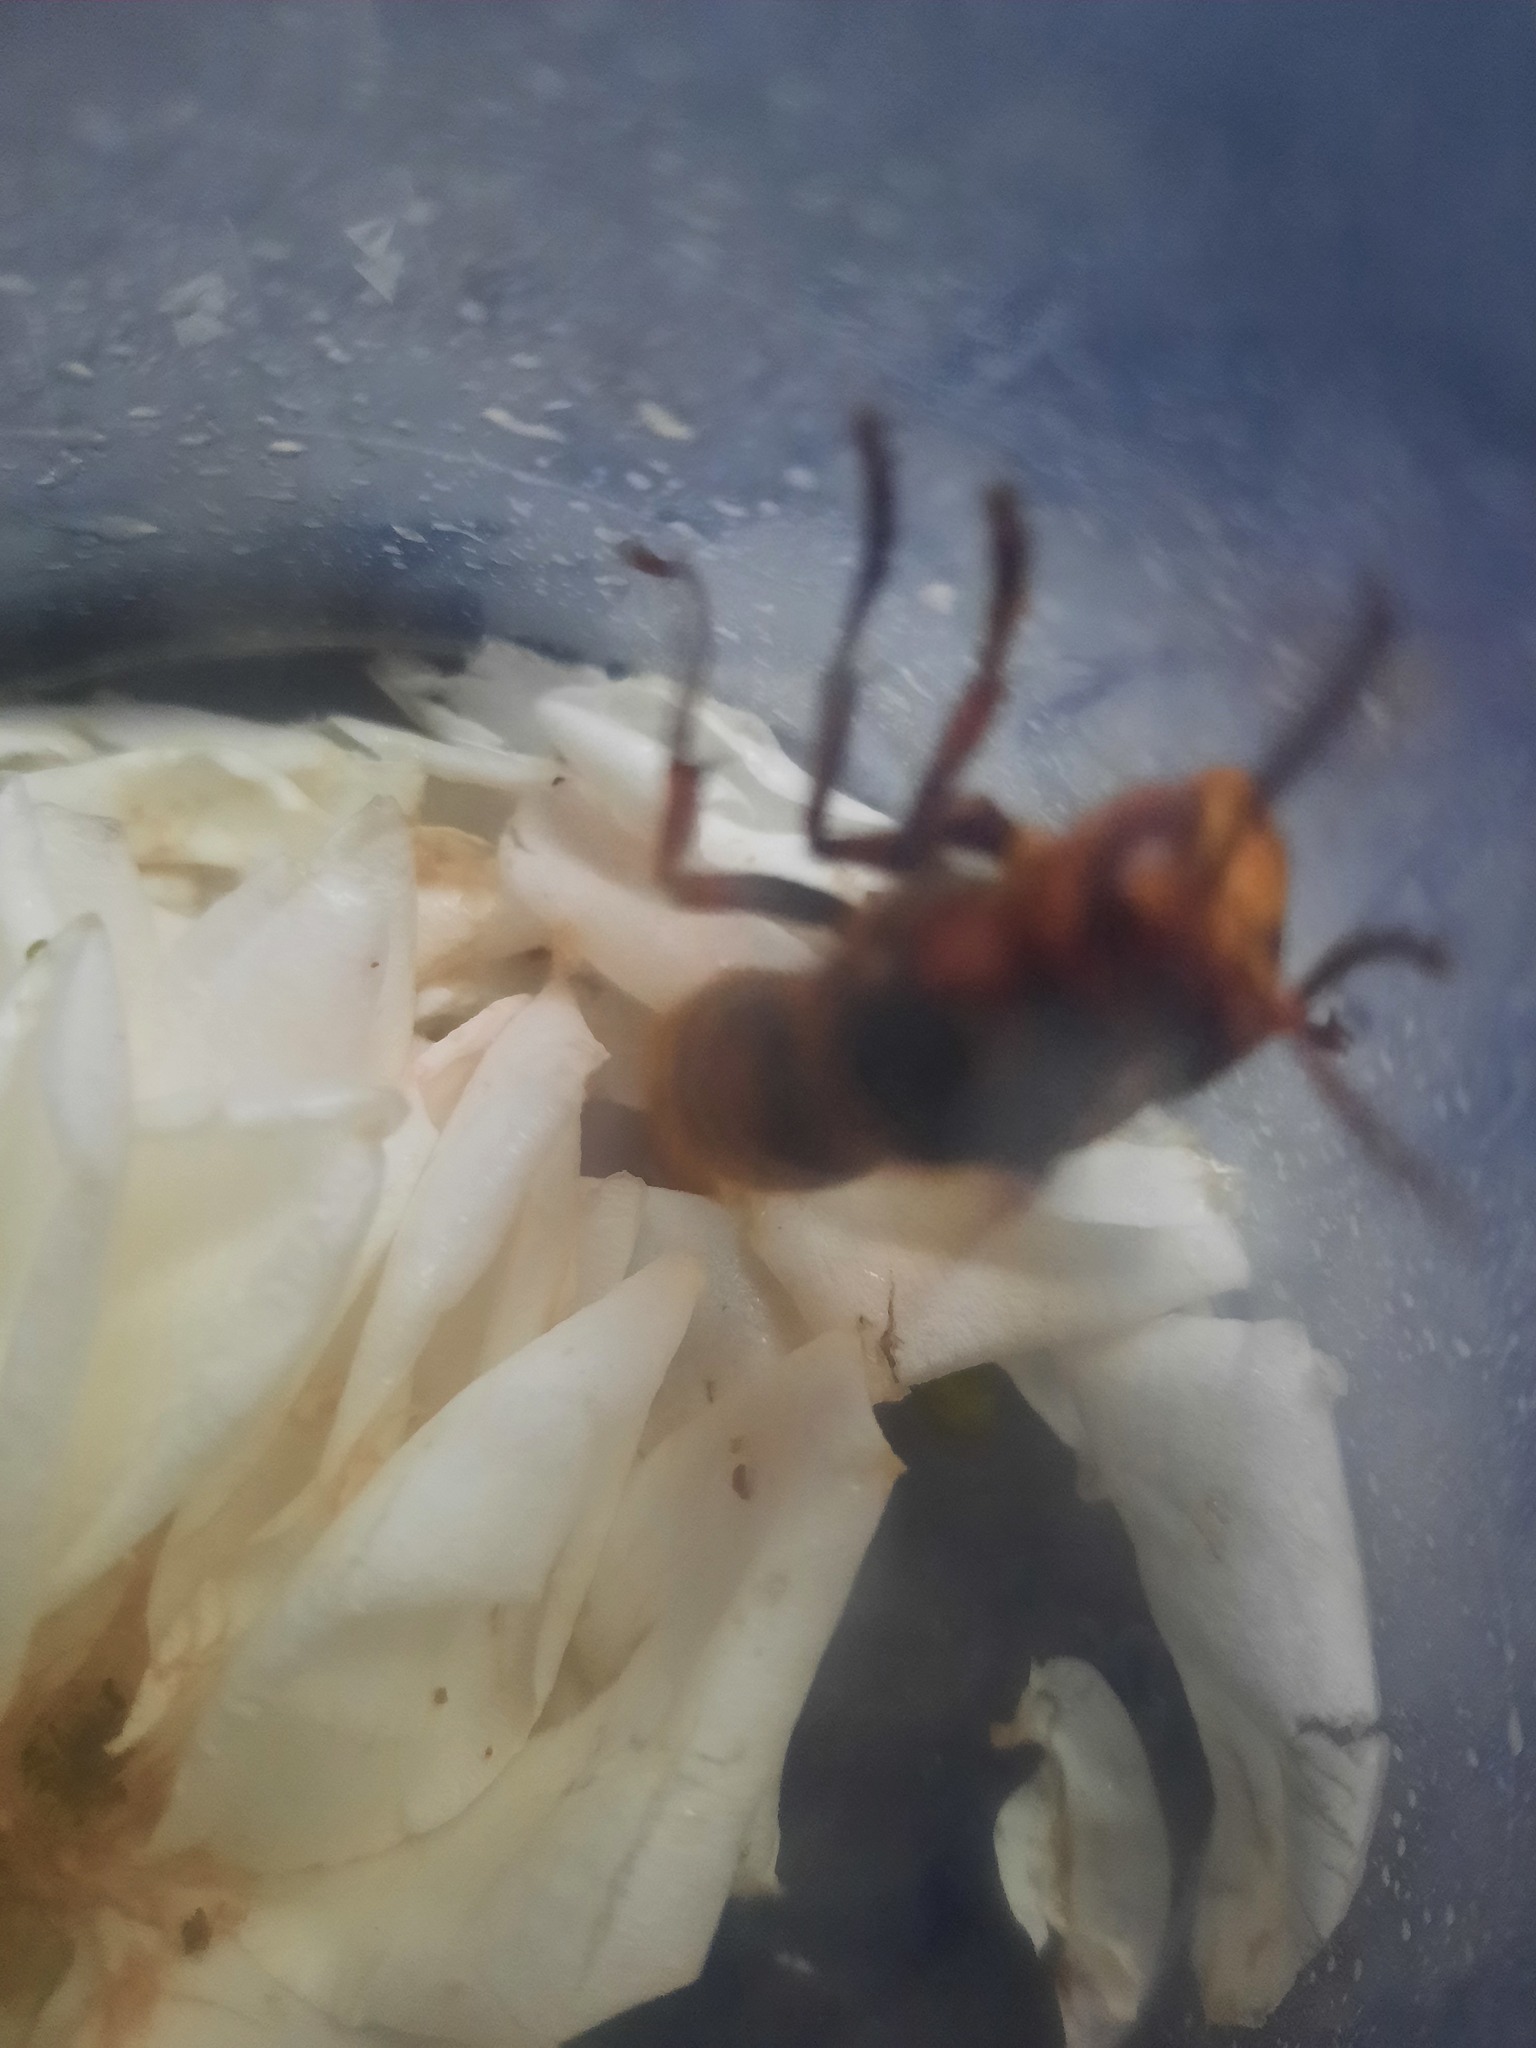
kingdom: Animalia
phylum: Arthropoda
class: Insecta
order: Hymenoptera
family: Vespidae
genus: Vespa
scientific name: Vespa crabro
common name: Hornet
